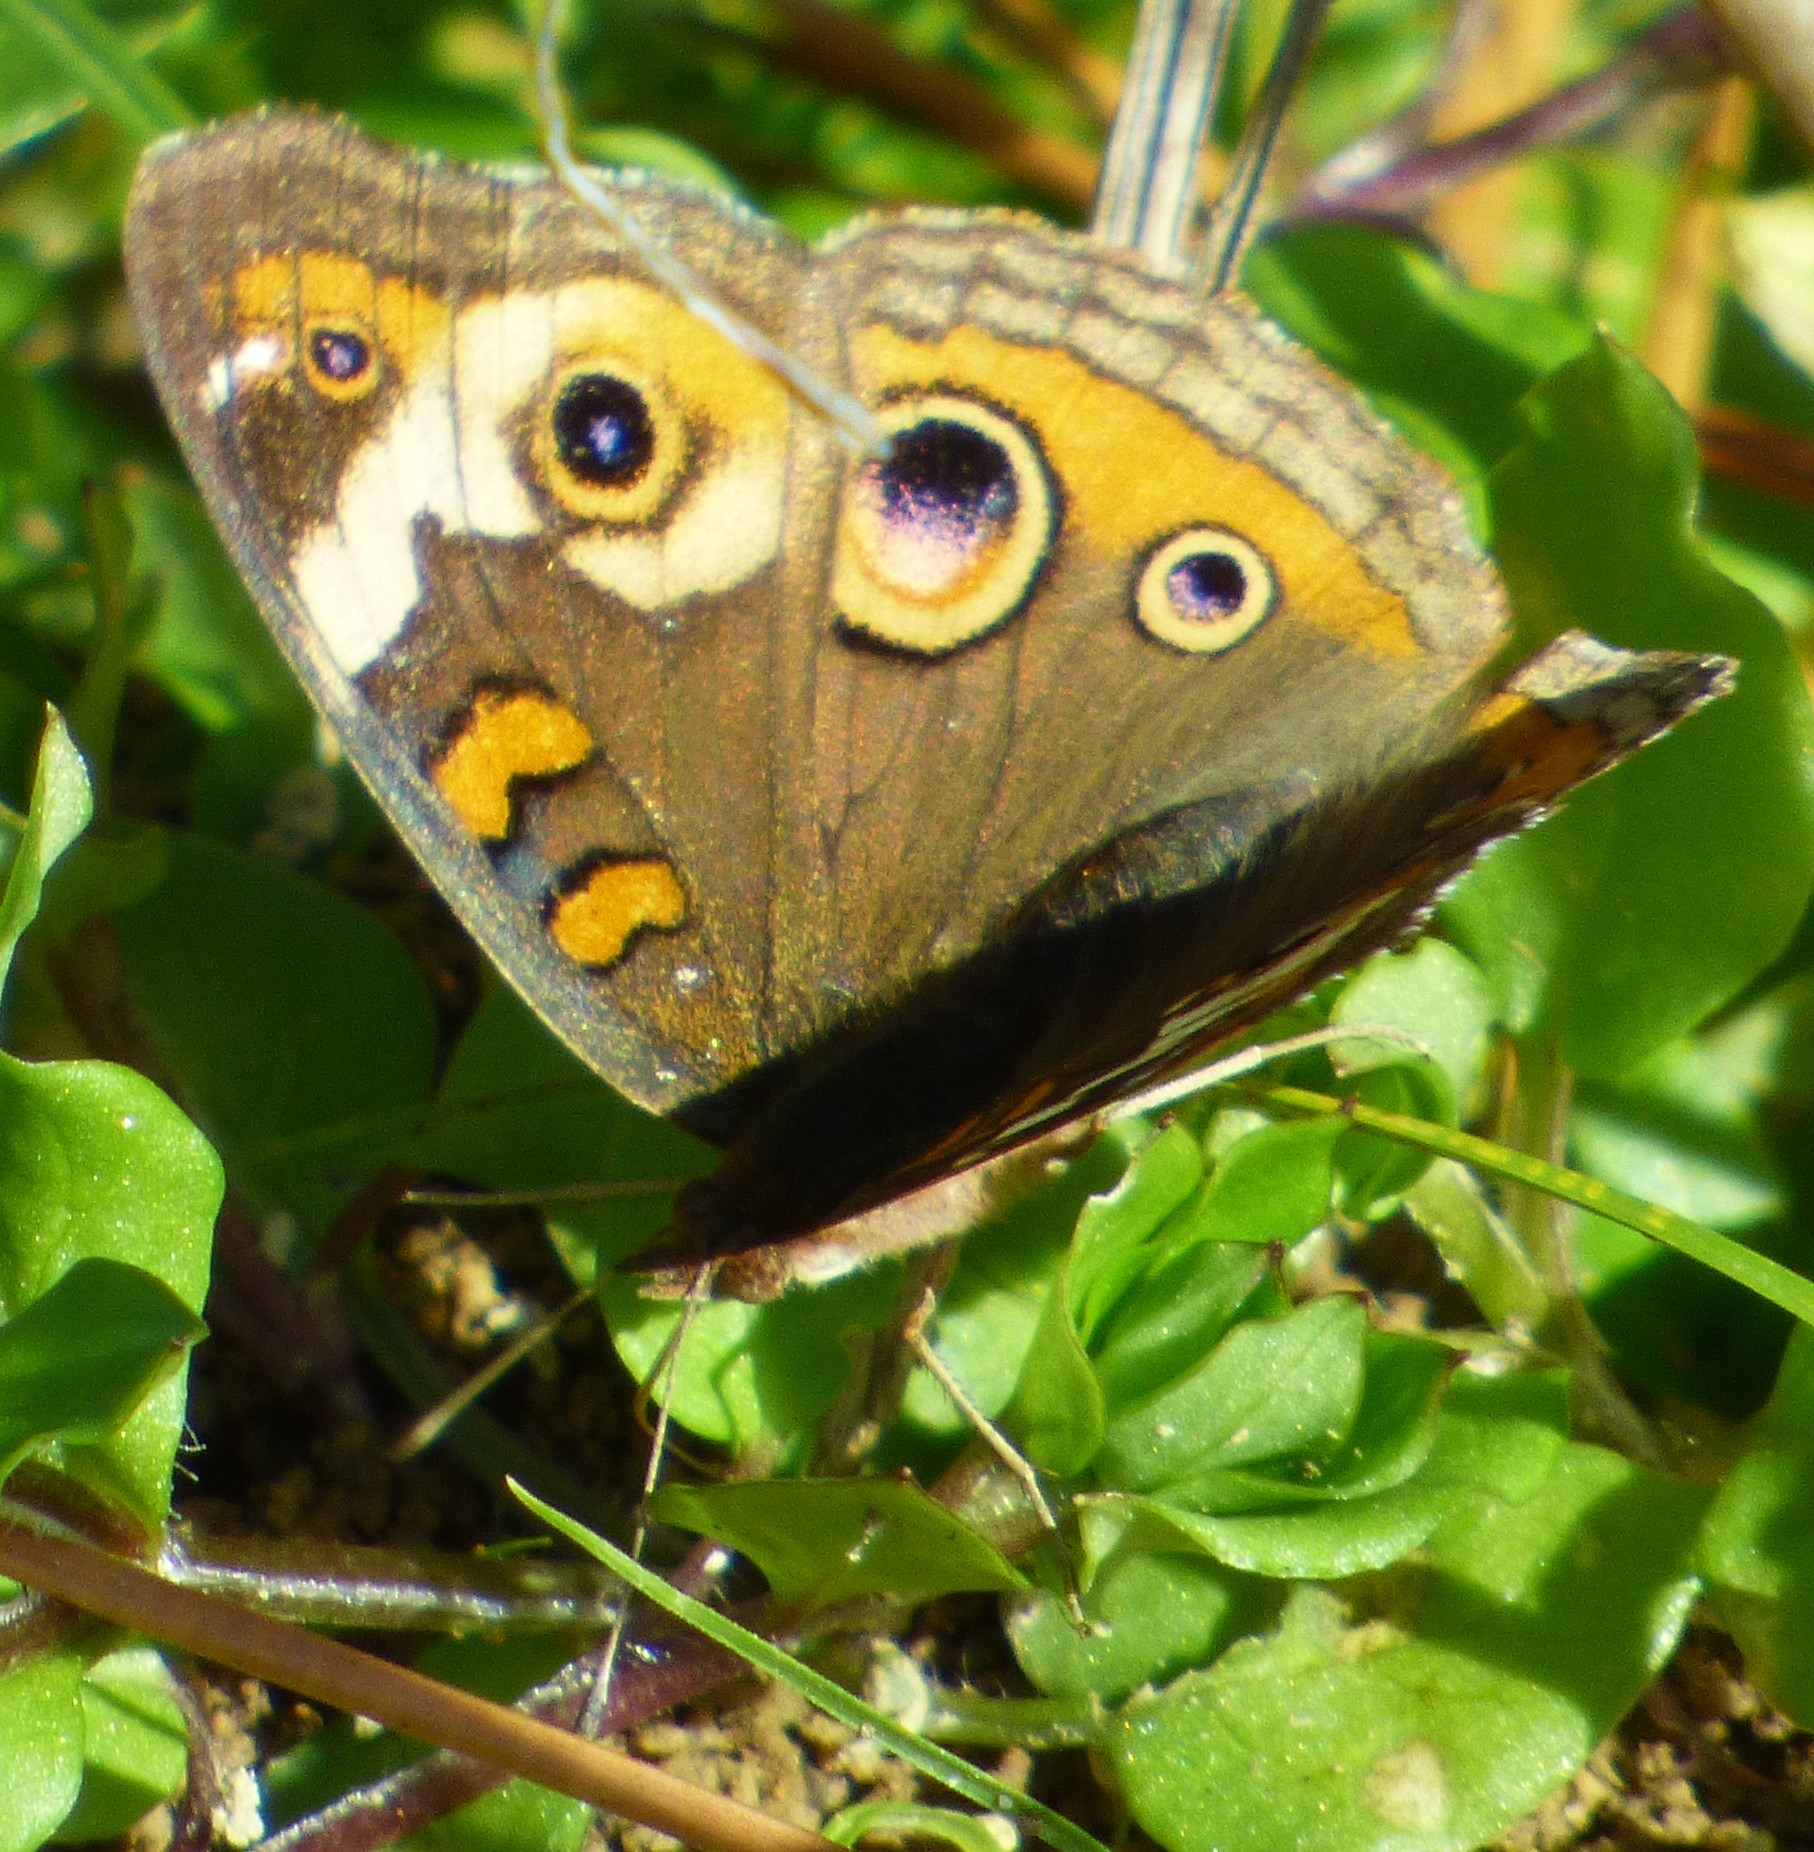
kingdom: Animalia
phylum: Arthropoda
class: Insecta
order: Lepidoptera
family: Nymphalidae
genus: Junonia
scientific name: Junonia coenia
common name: Common buckeye
